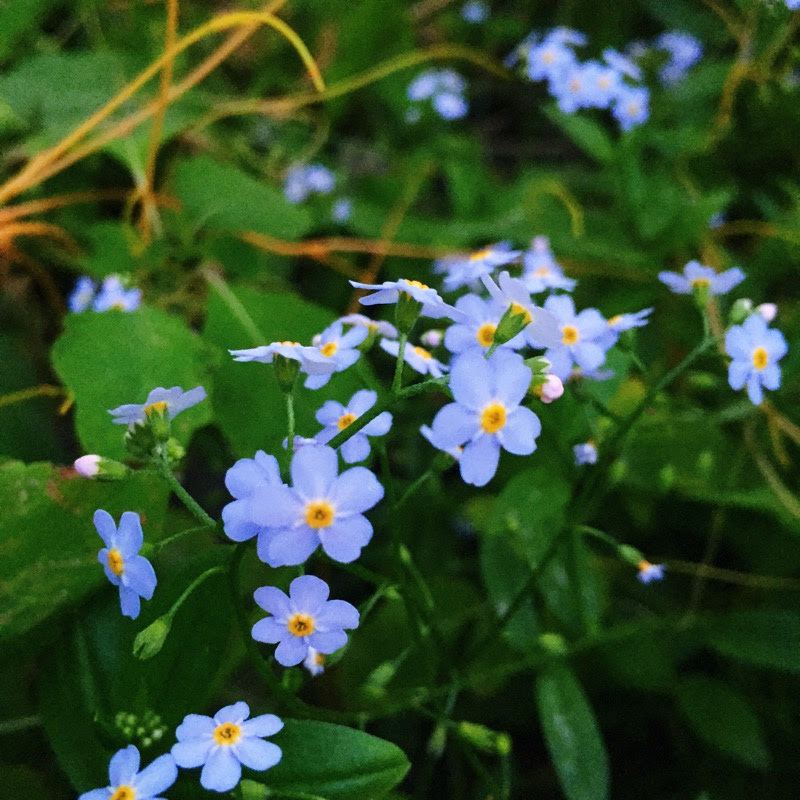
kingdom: Plantae
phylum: Tracheophyta
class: Magnoliopsida
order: Boraginales
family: Boraginaceae
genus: Myosotis
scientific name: Myosotis scorpioides
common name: Water forget-me-not
